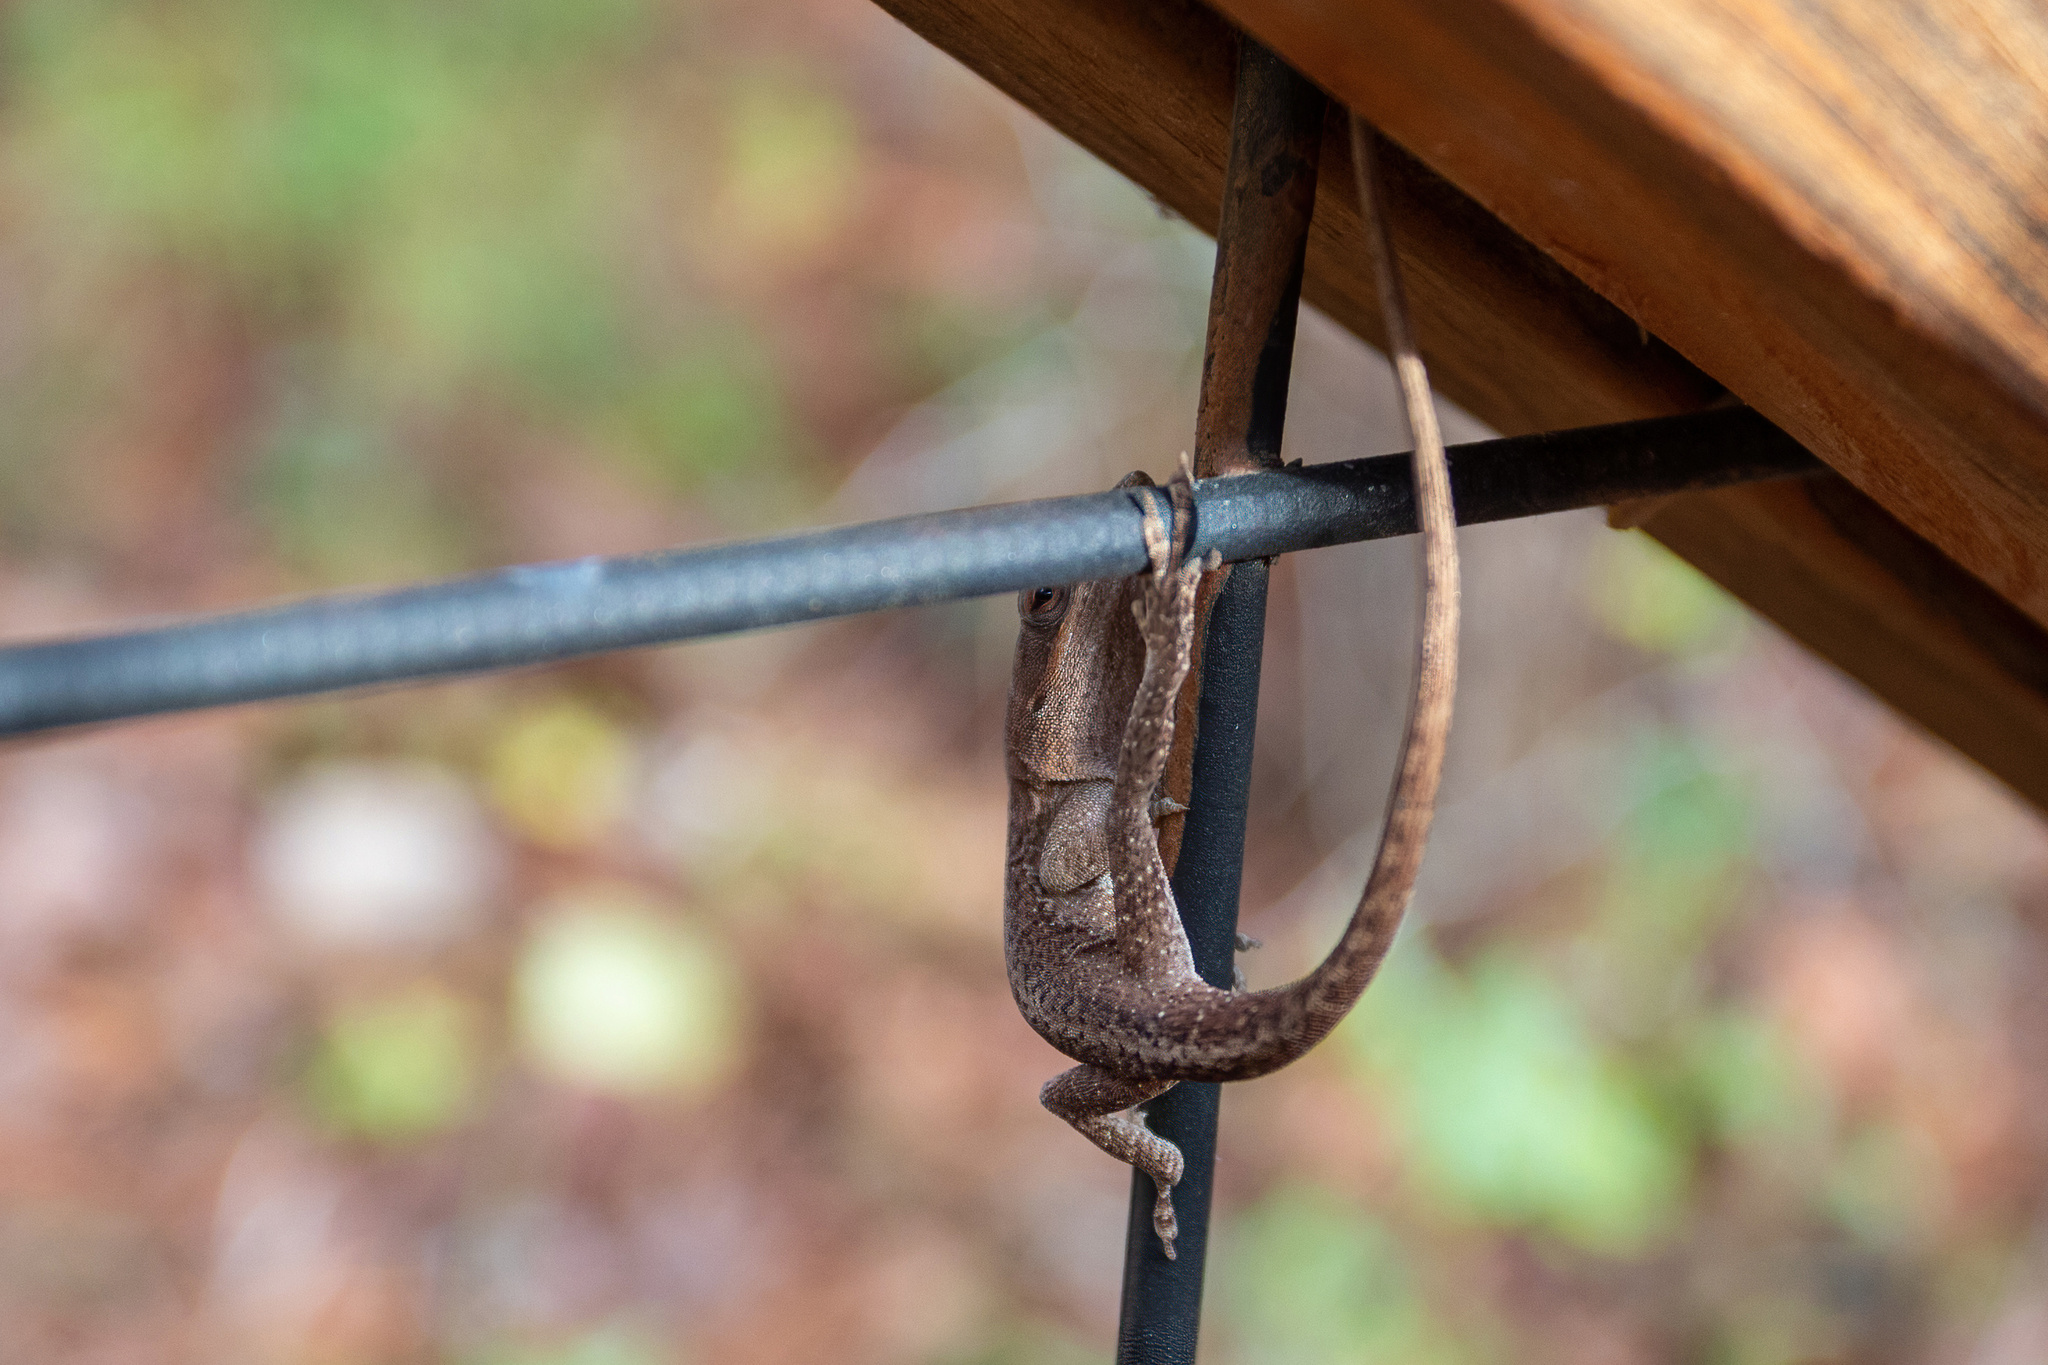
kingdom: Animalia
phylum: Chordata
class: Squamata
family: Dactyloidae
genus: Anolis
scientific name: Anolis carolinensis
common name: Green anole
